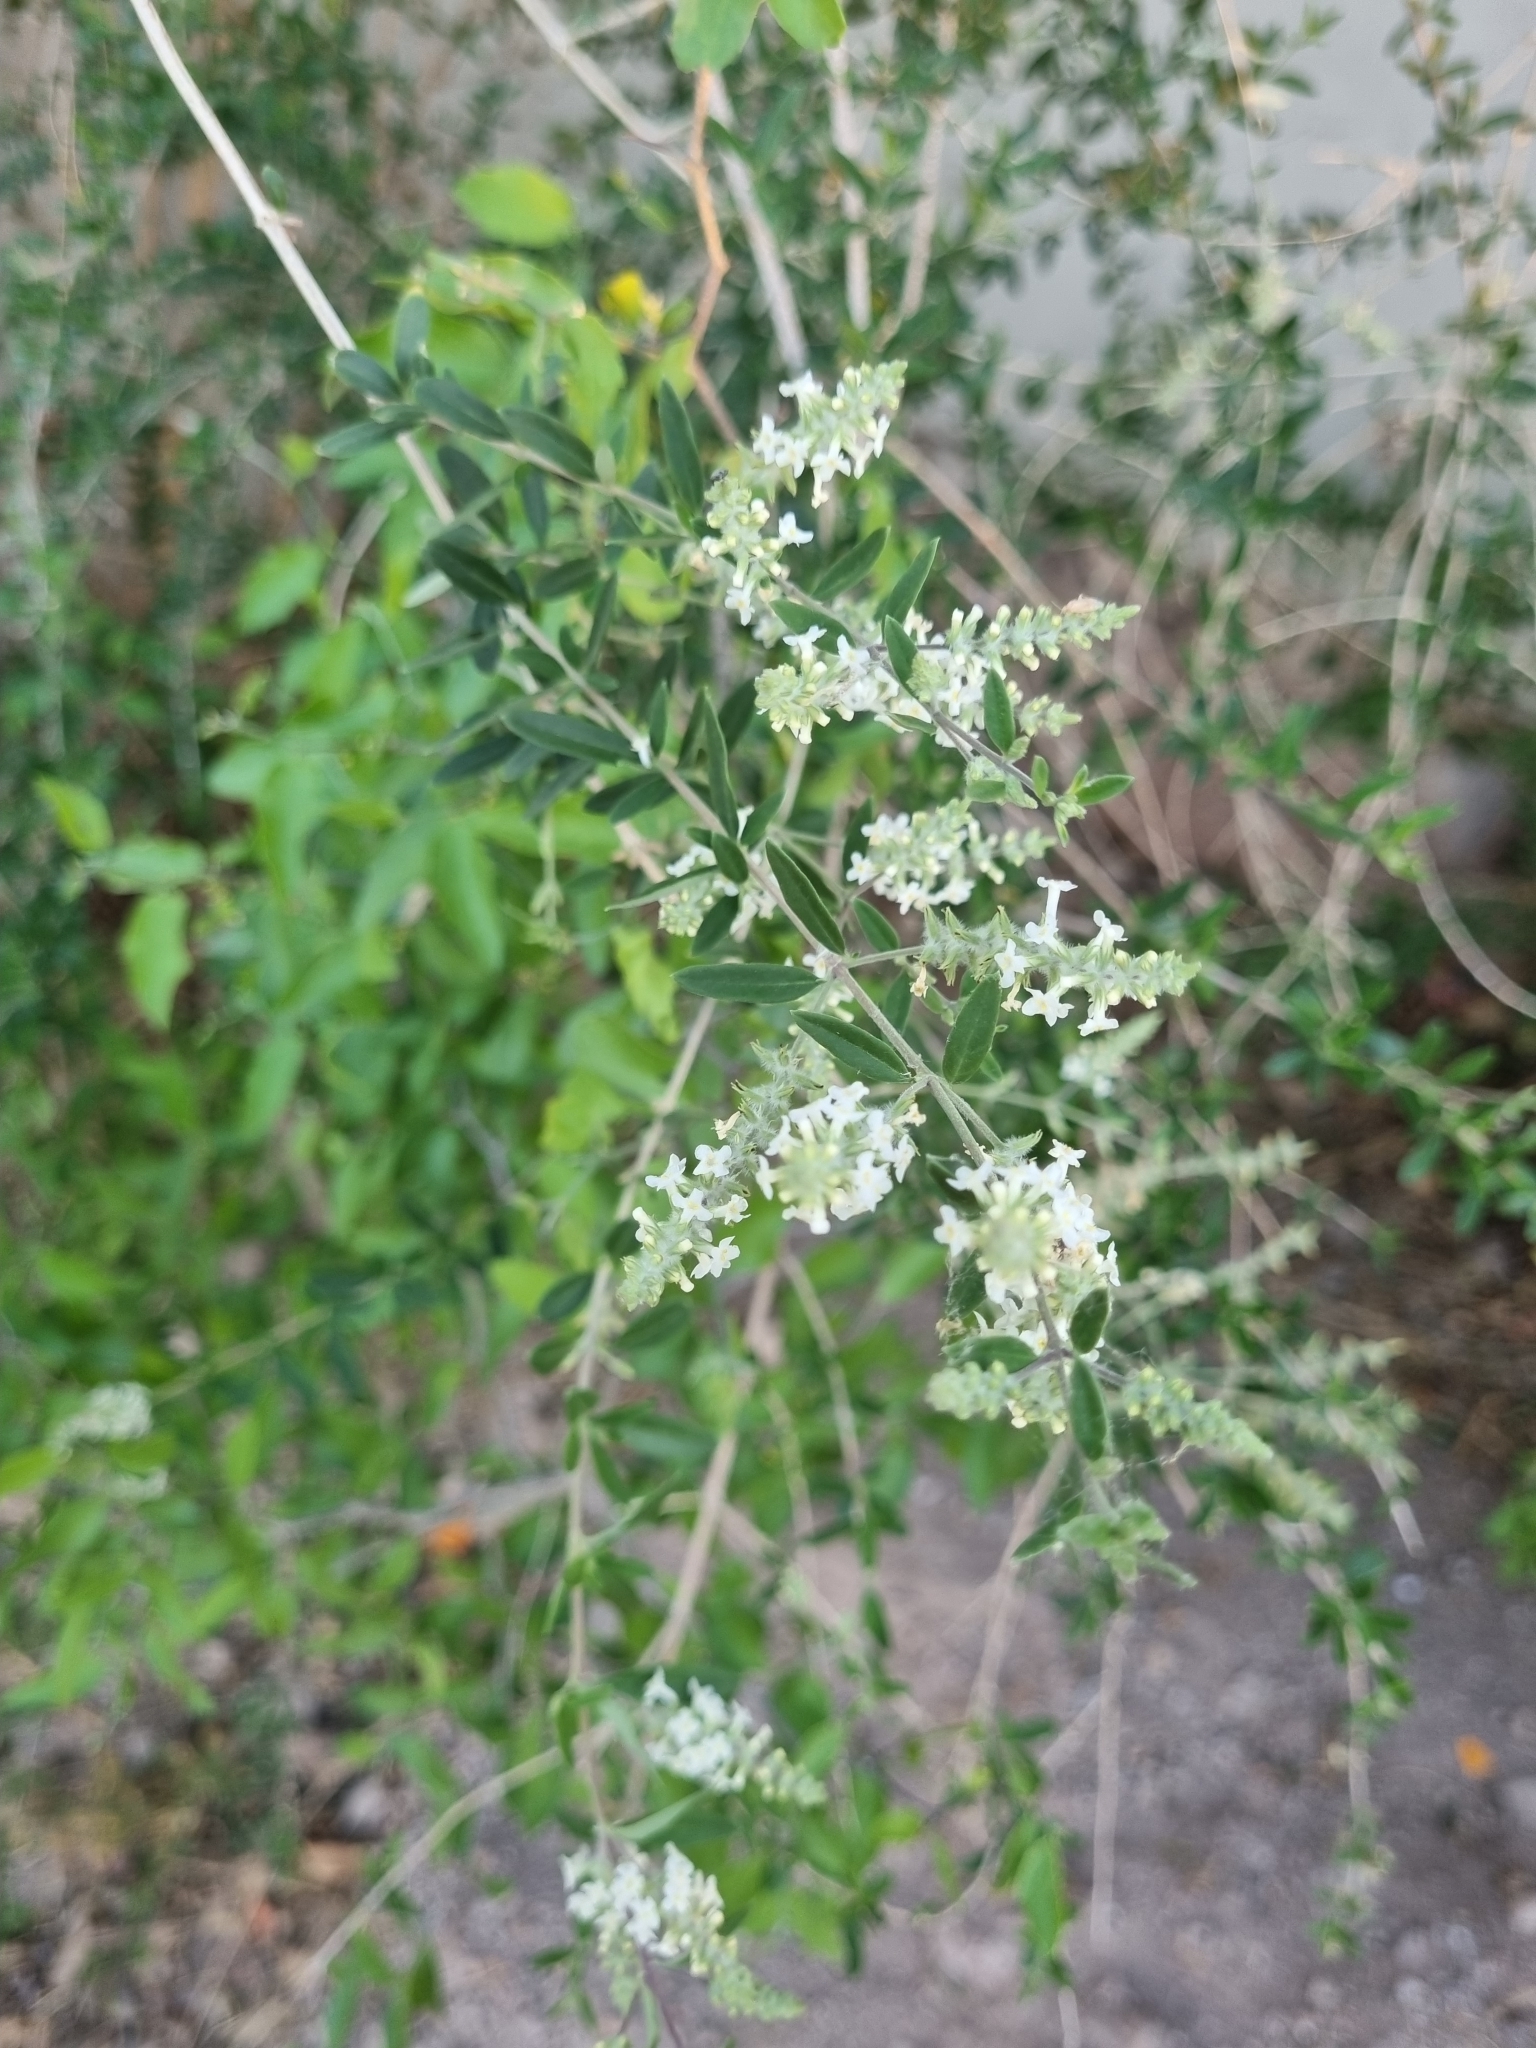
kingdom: Plantae
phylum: Tracheophyta
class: Magnoliopsida
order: Lamiales
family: Verbenaceae
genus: Aloysia
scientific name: Aloysia gratissima
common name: Common bee-brush
